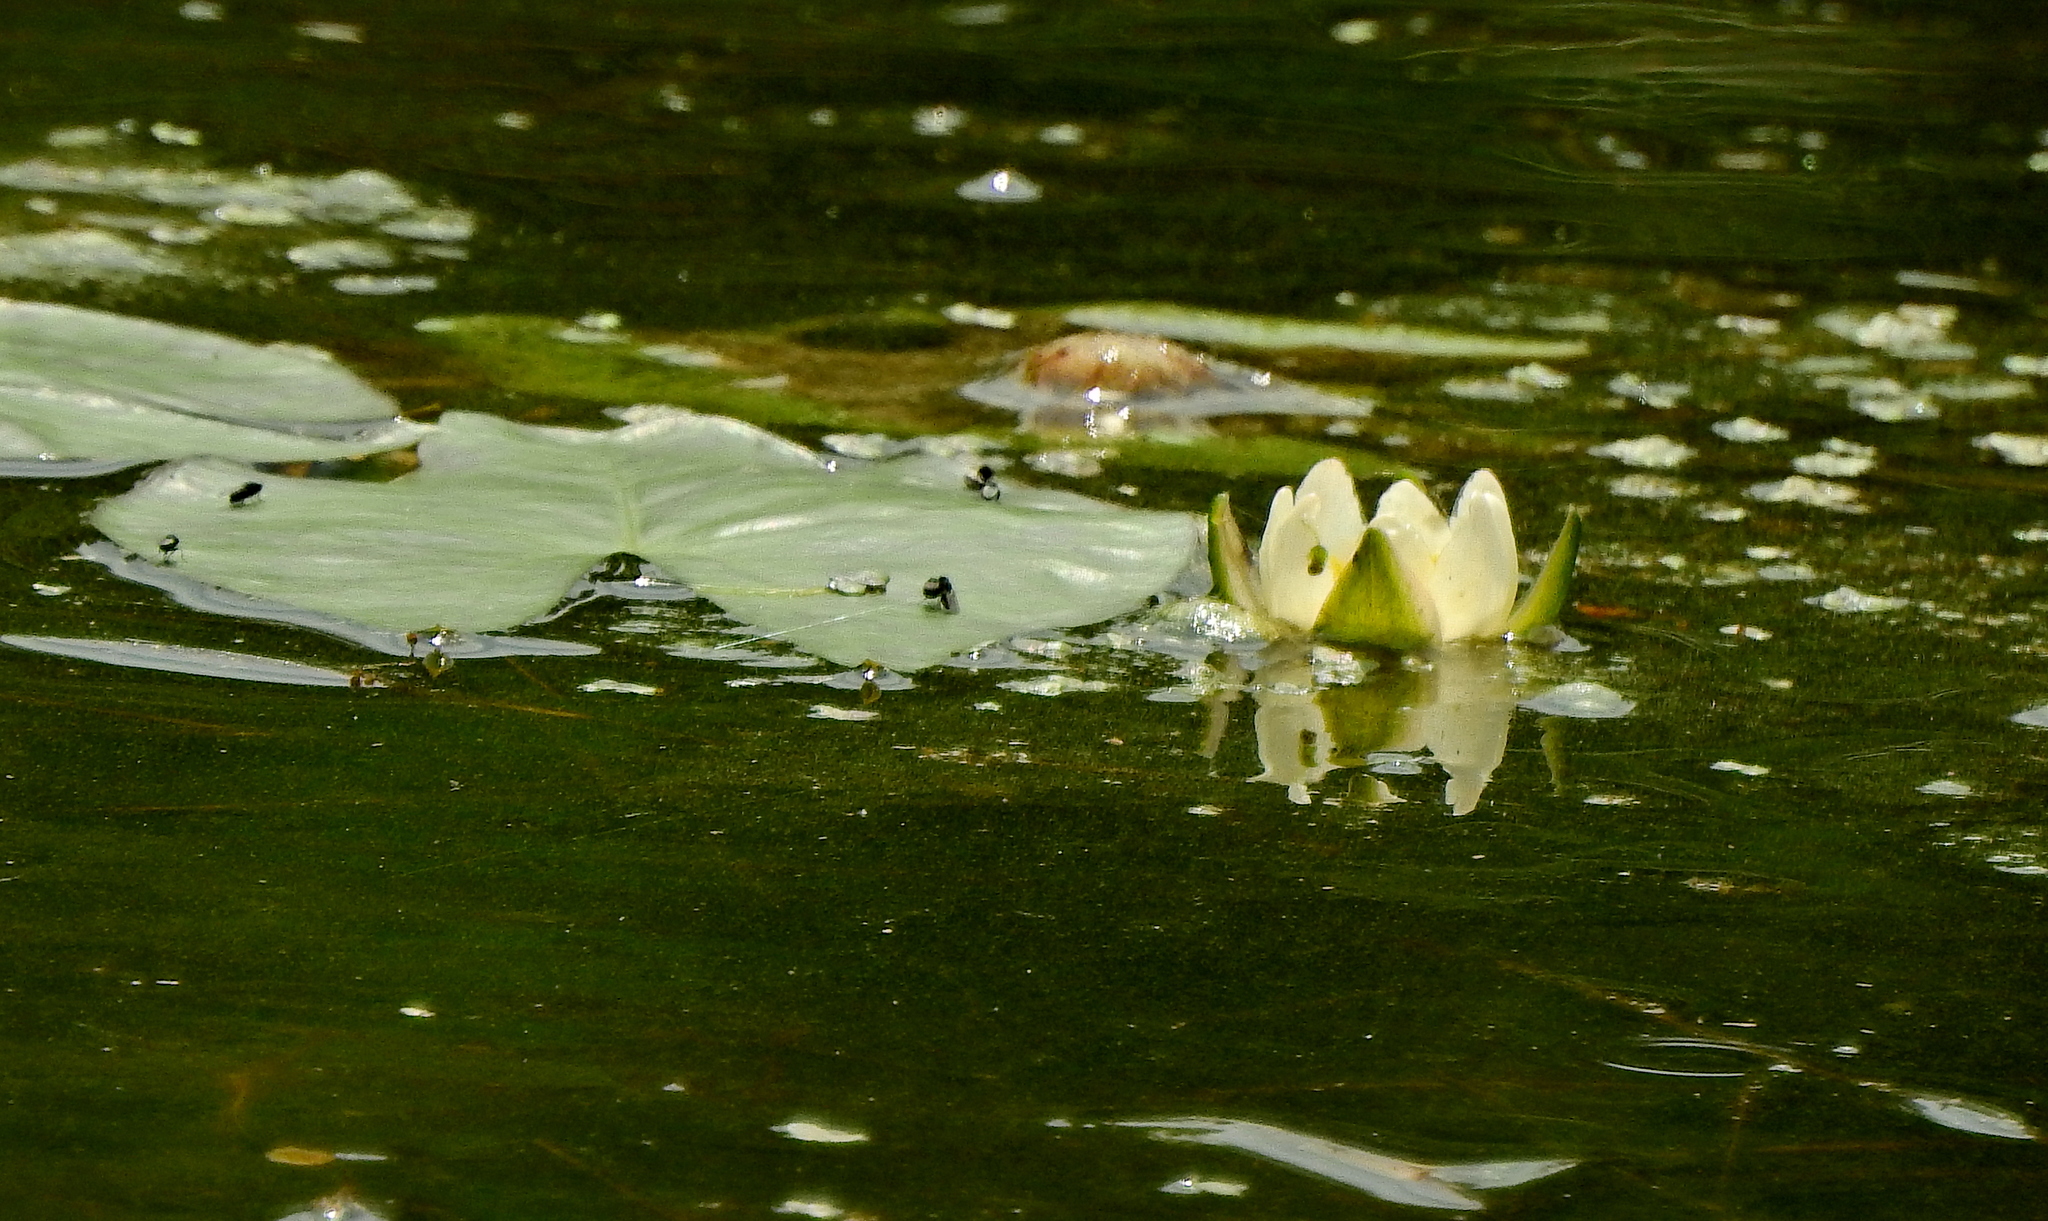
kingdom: Plantae
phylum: Tracheophyta
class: Magnoliopsida
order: Nymphaeales
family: Nymphaeaceae
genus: Nymphaea
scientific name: Nymphaea tetragona
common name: Pygmy water-lily
